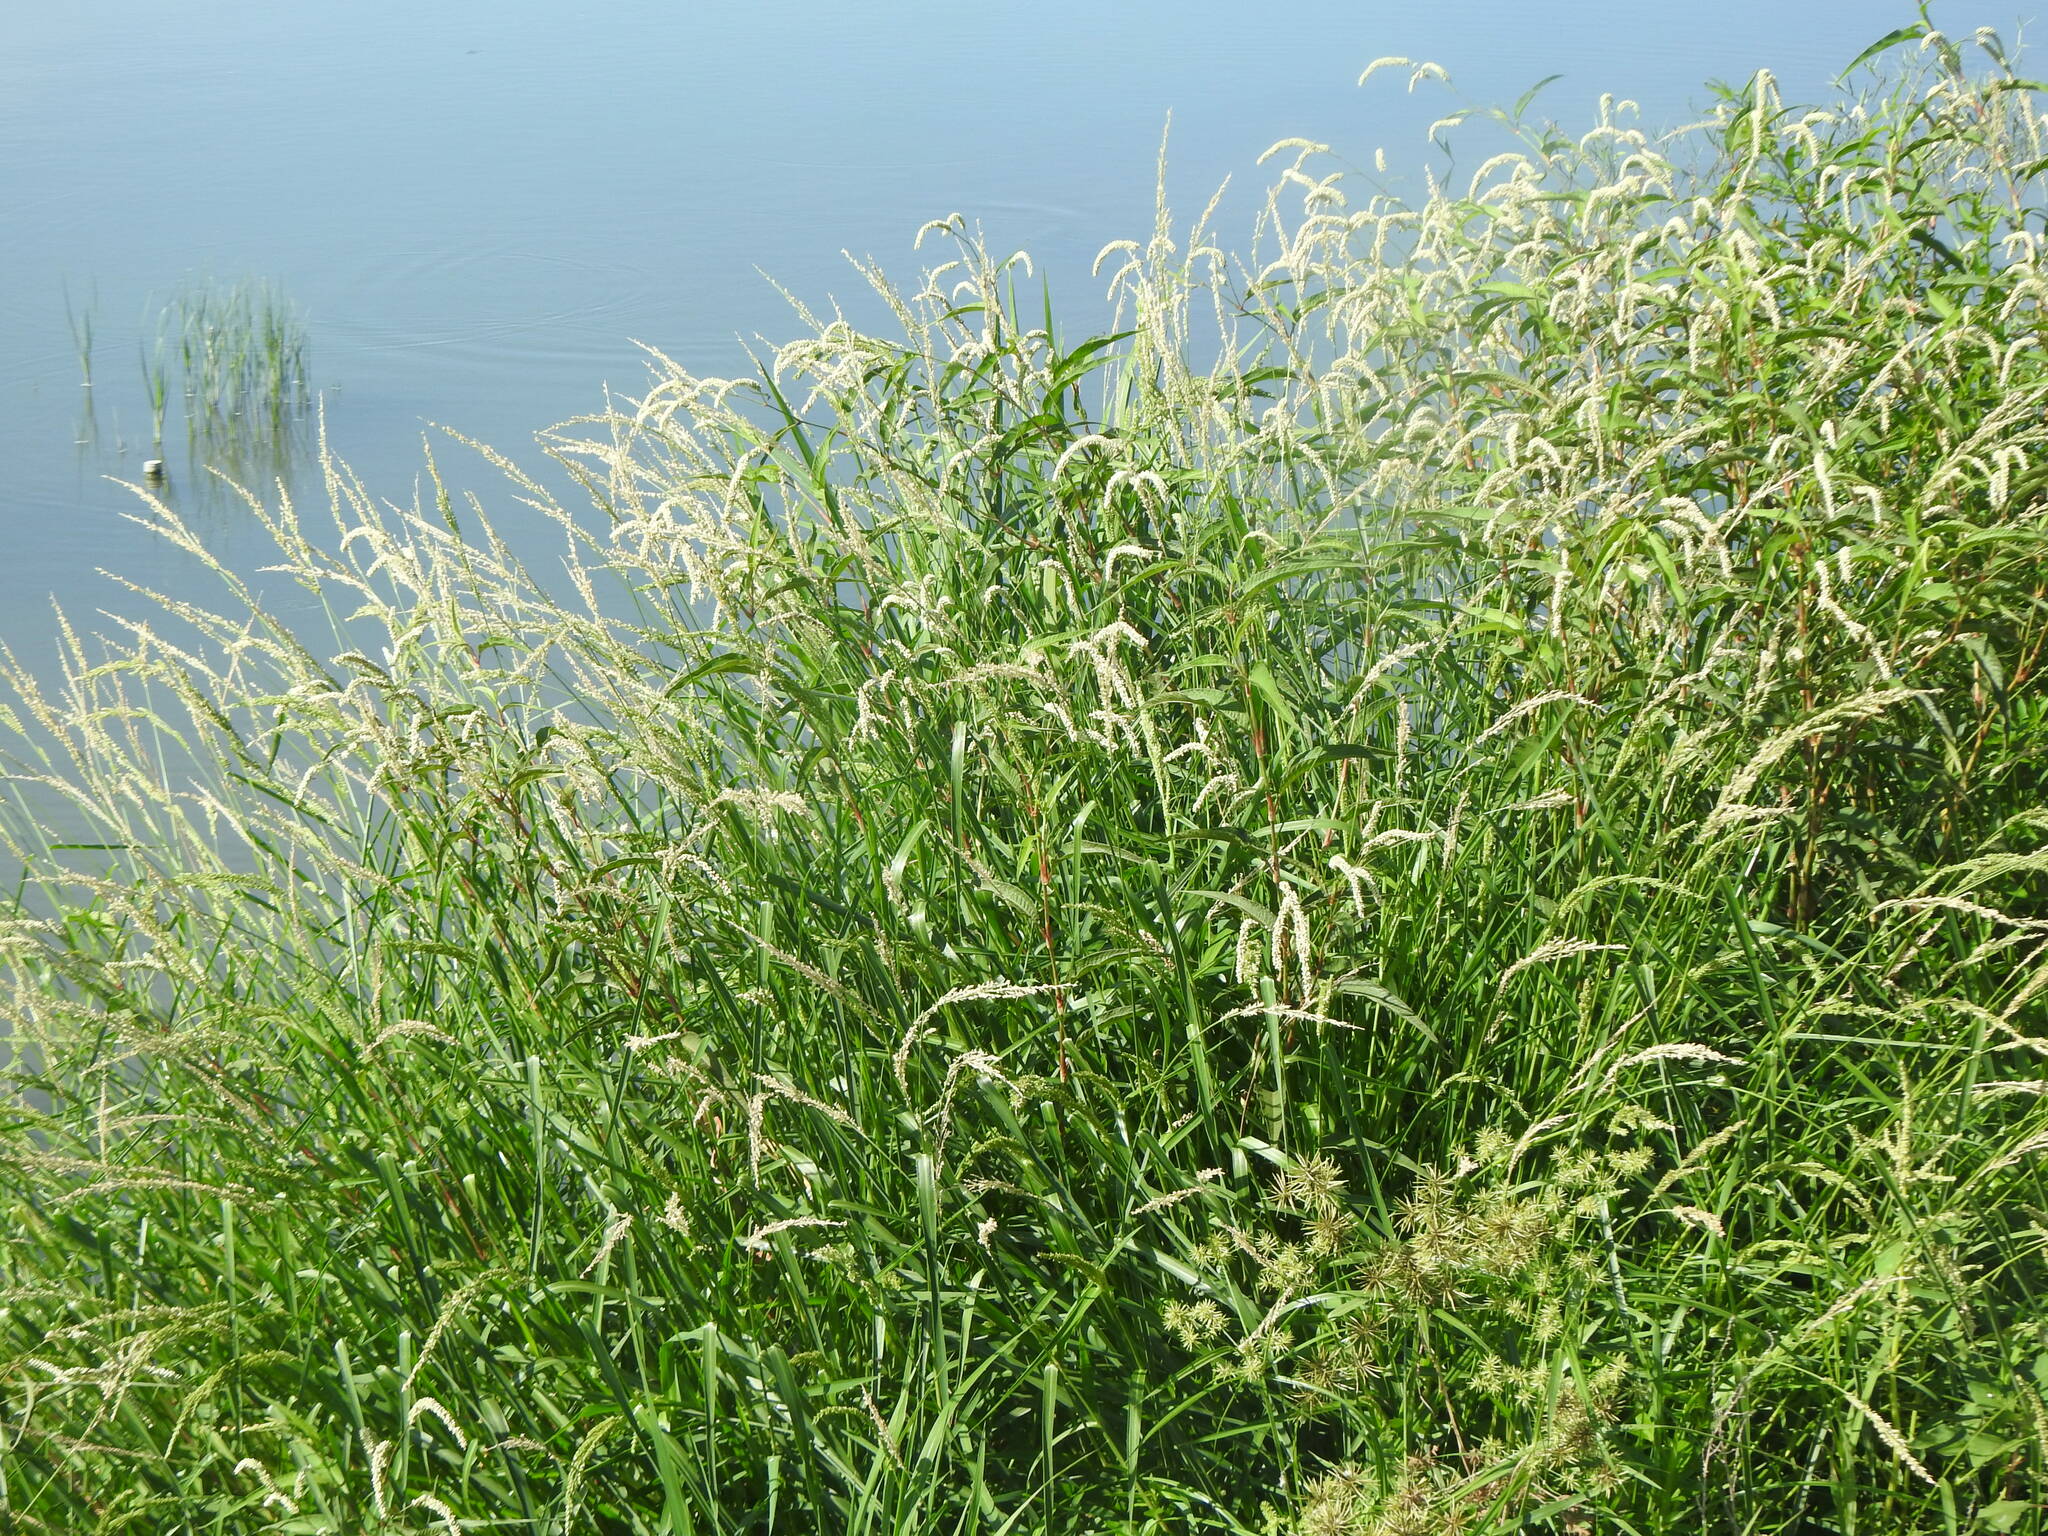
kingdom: Plantae
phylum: Tracheophyta
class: Liliopsida
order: Poales
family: Poaceae
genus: Echinochloa
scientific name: Echinochloa crus-galli
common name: Cockspur
